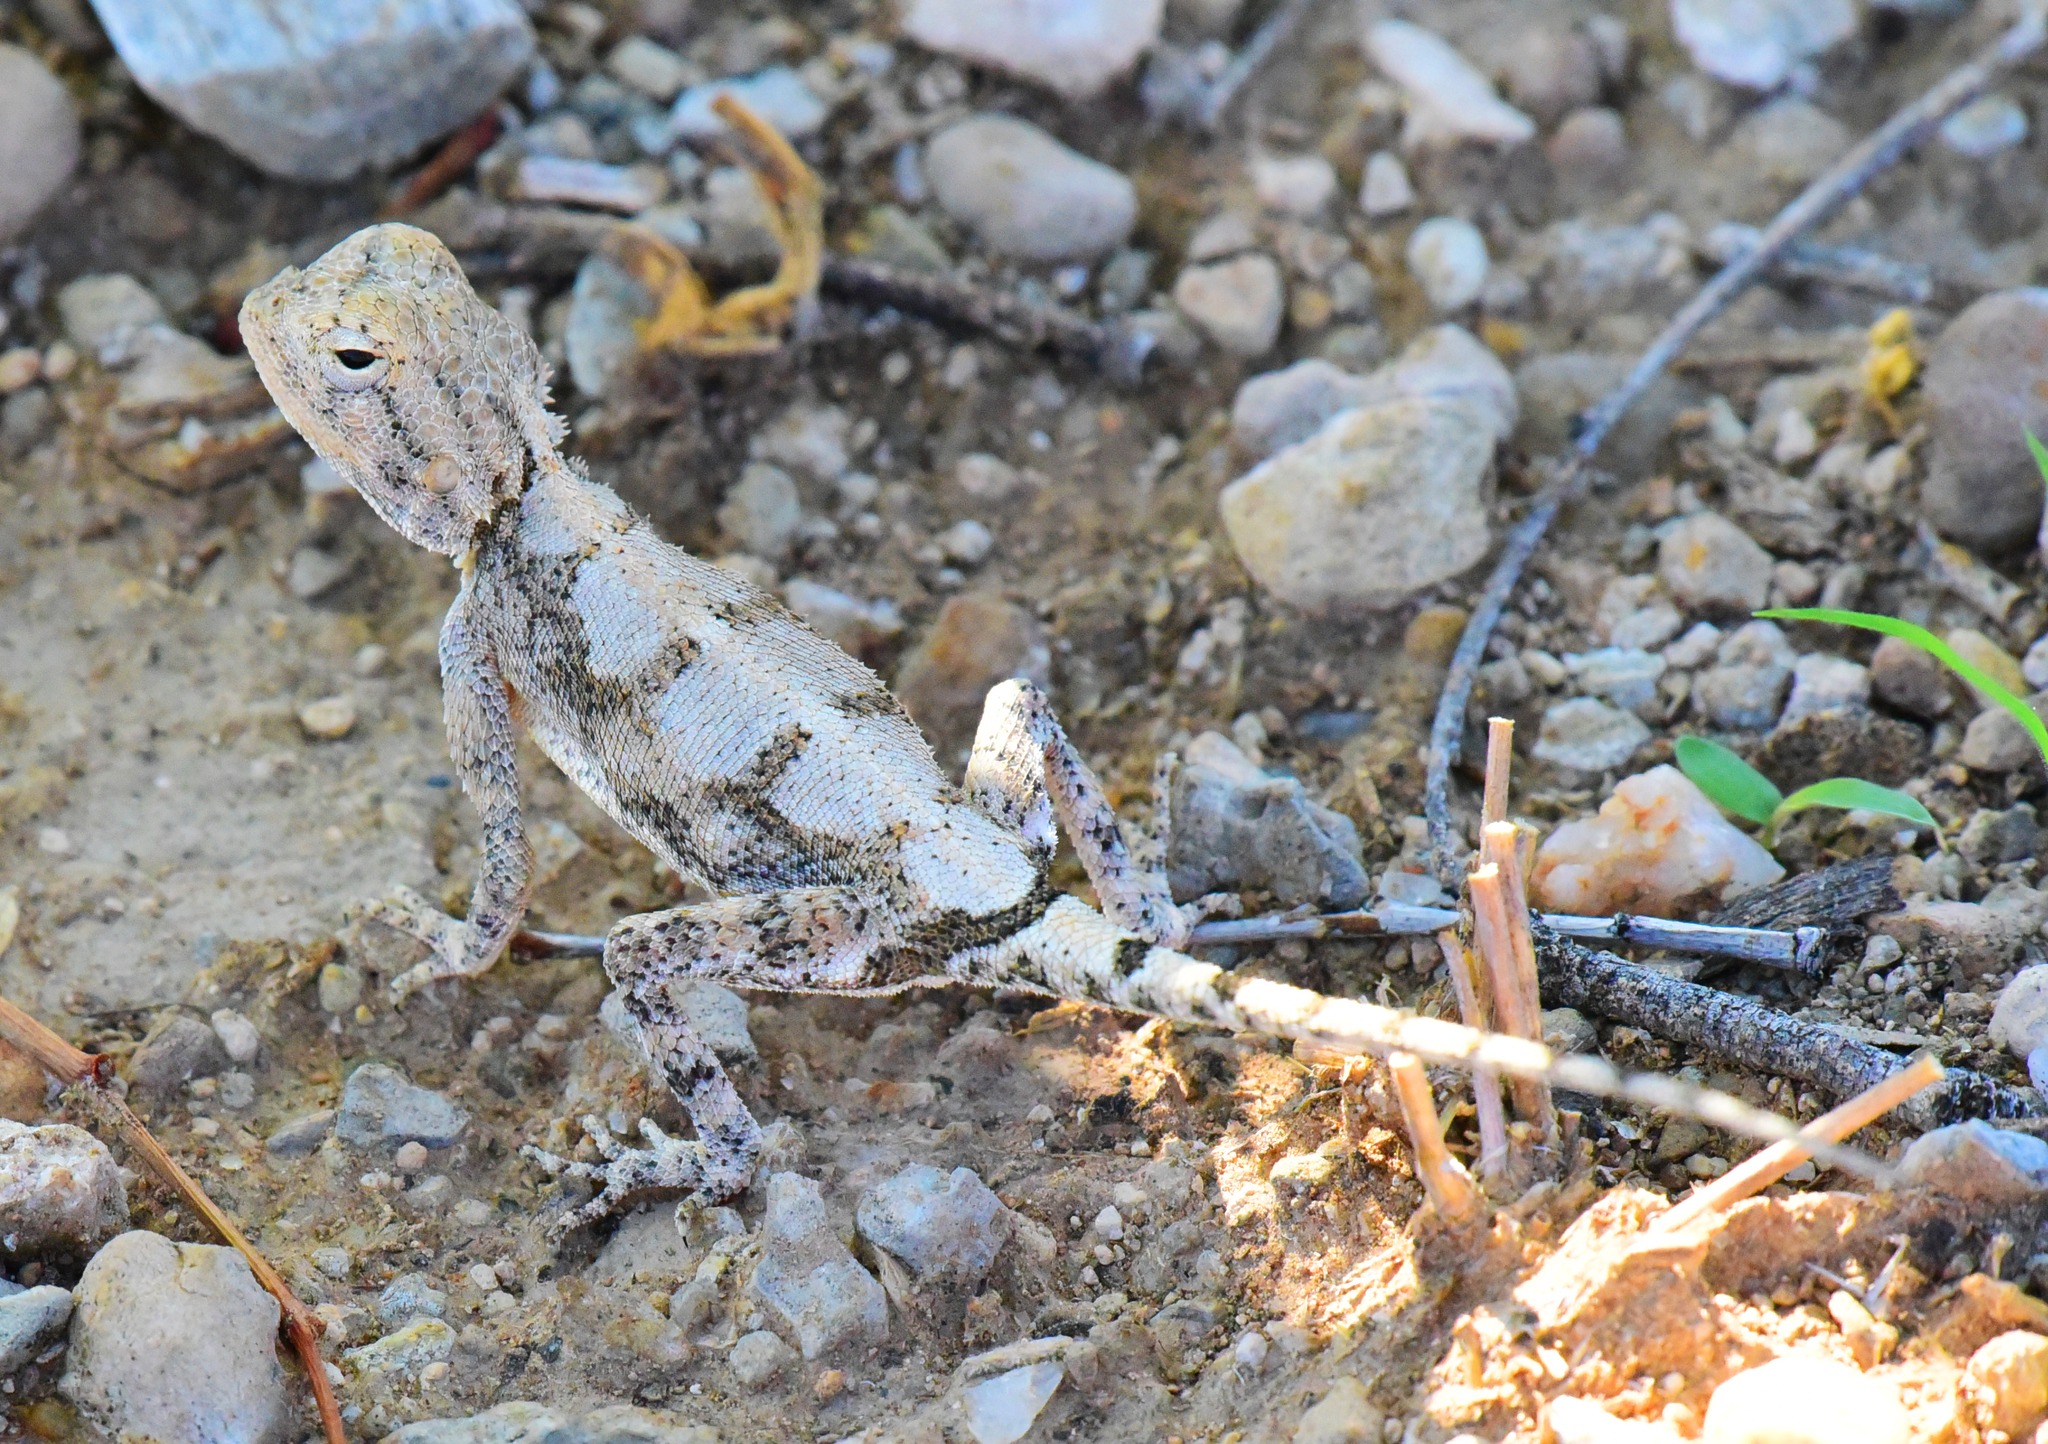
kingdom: Animalia
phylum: Chordata
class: Squamata
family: Agamidae
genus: Agama
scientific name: Agama anchietae
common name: Anchieta's agama
